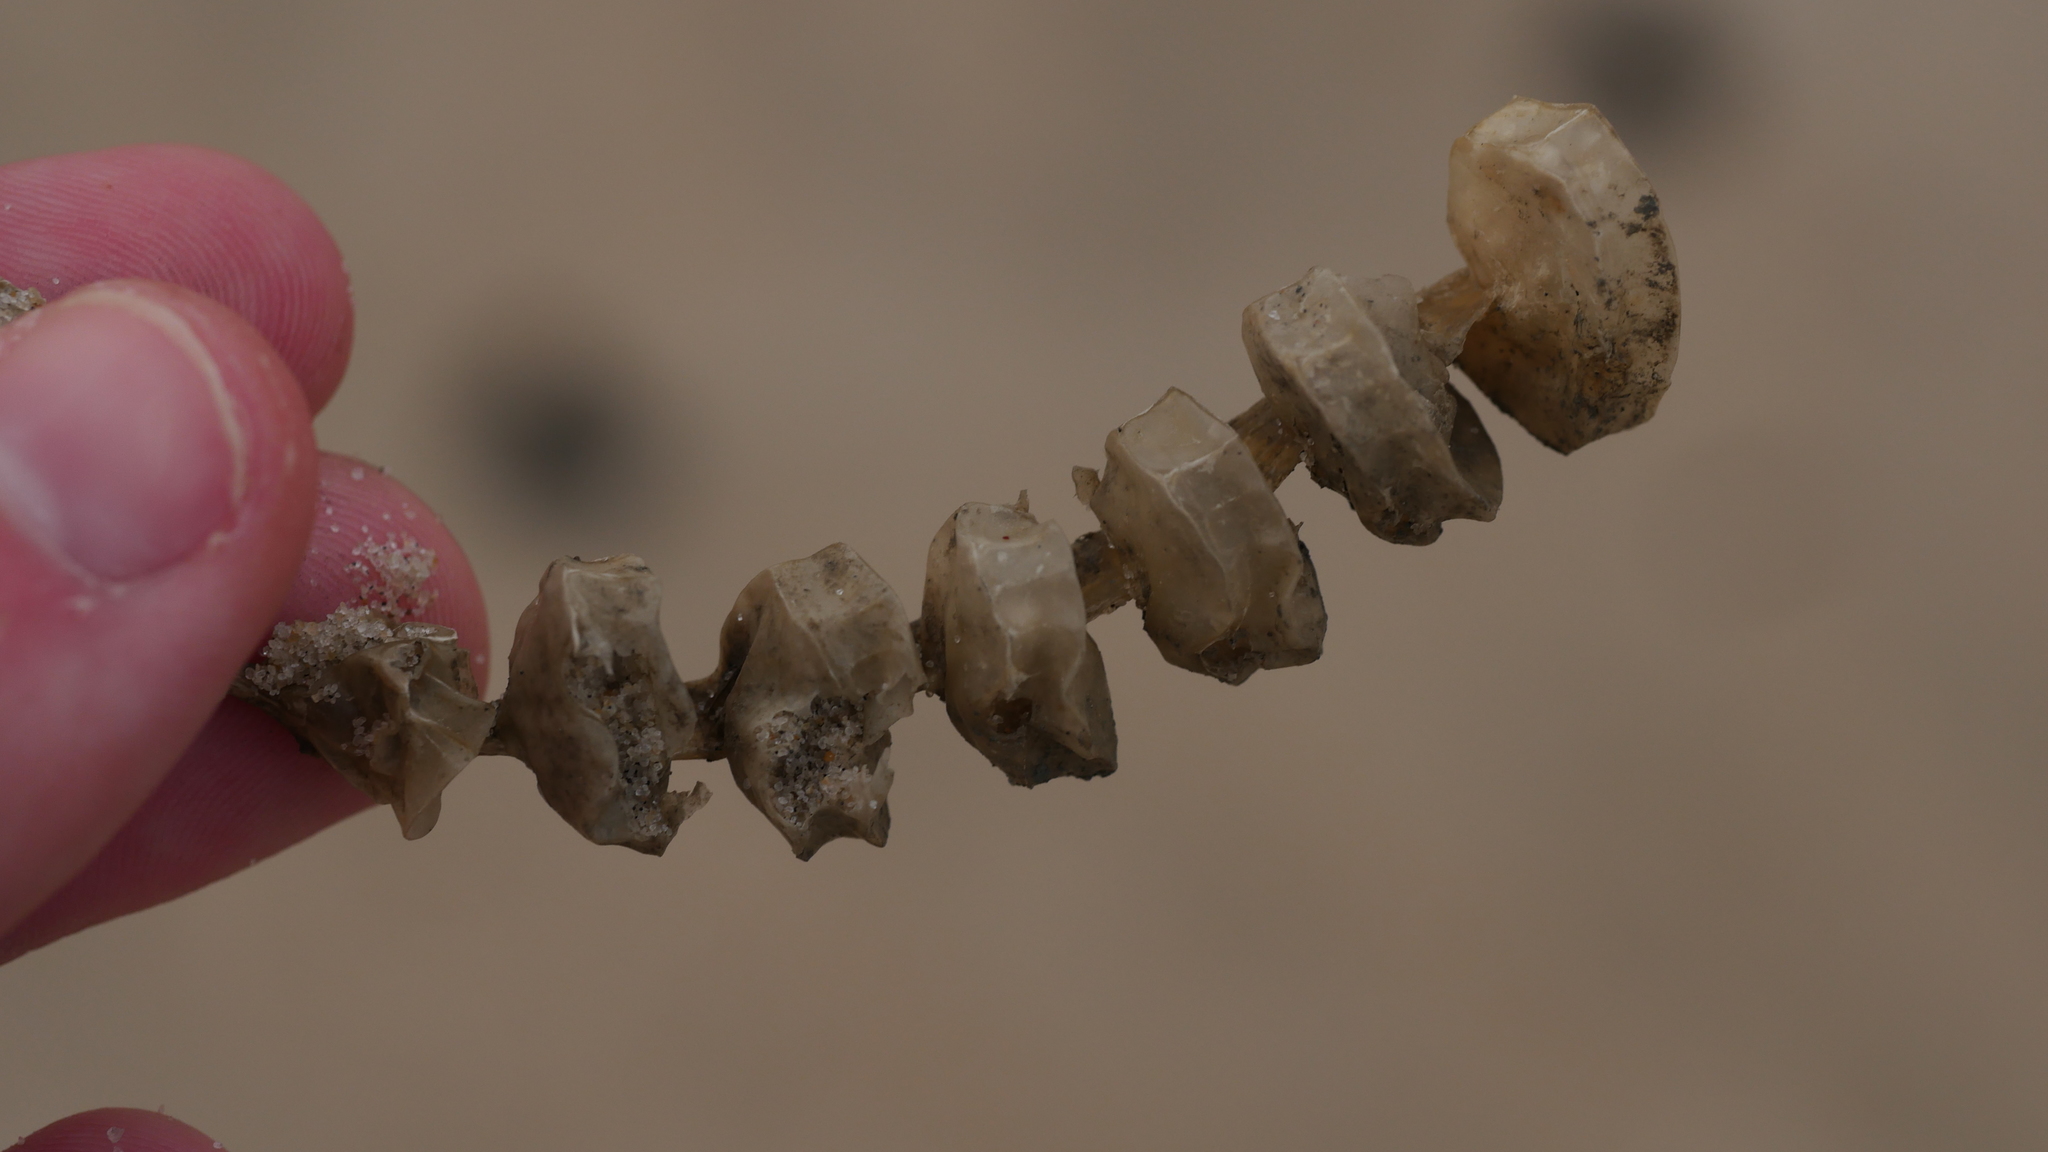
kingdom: Animalia
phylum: Mollusca
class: Gastropoda
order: Neogastropoda
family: Busyconidae
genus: Busycon
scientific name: Busycon carica
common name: Knobbed whelk
